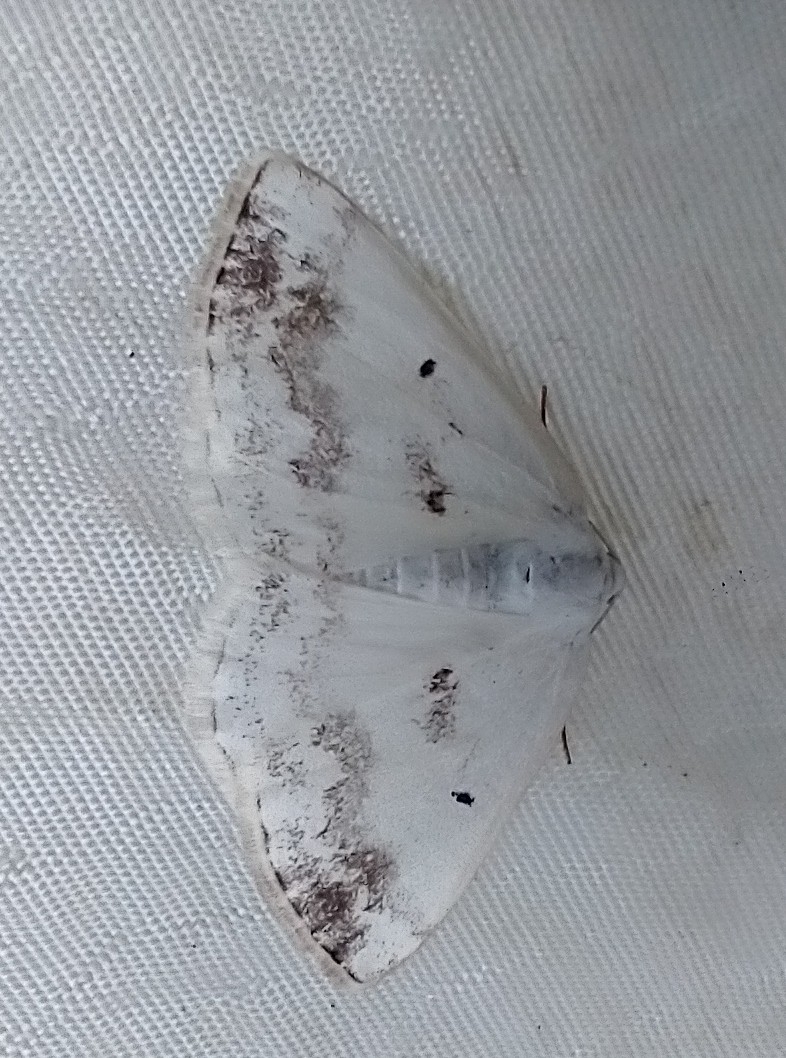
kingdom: Animalia
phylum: Arthropoda
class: Insecta
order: Lepidoptera
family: Geometridae
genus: Lomographa
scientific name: Lomographa temerata
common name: Clouded silver
